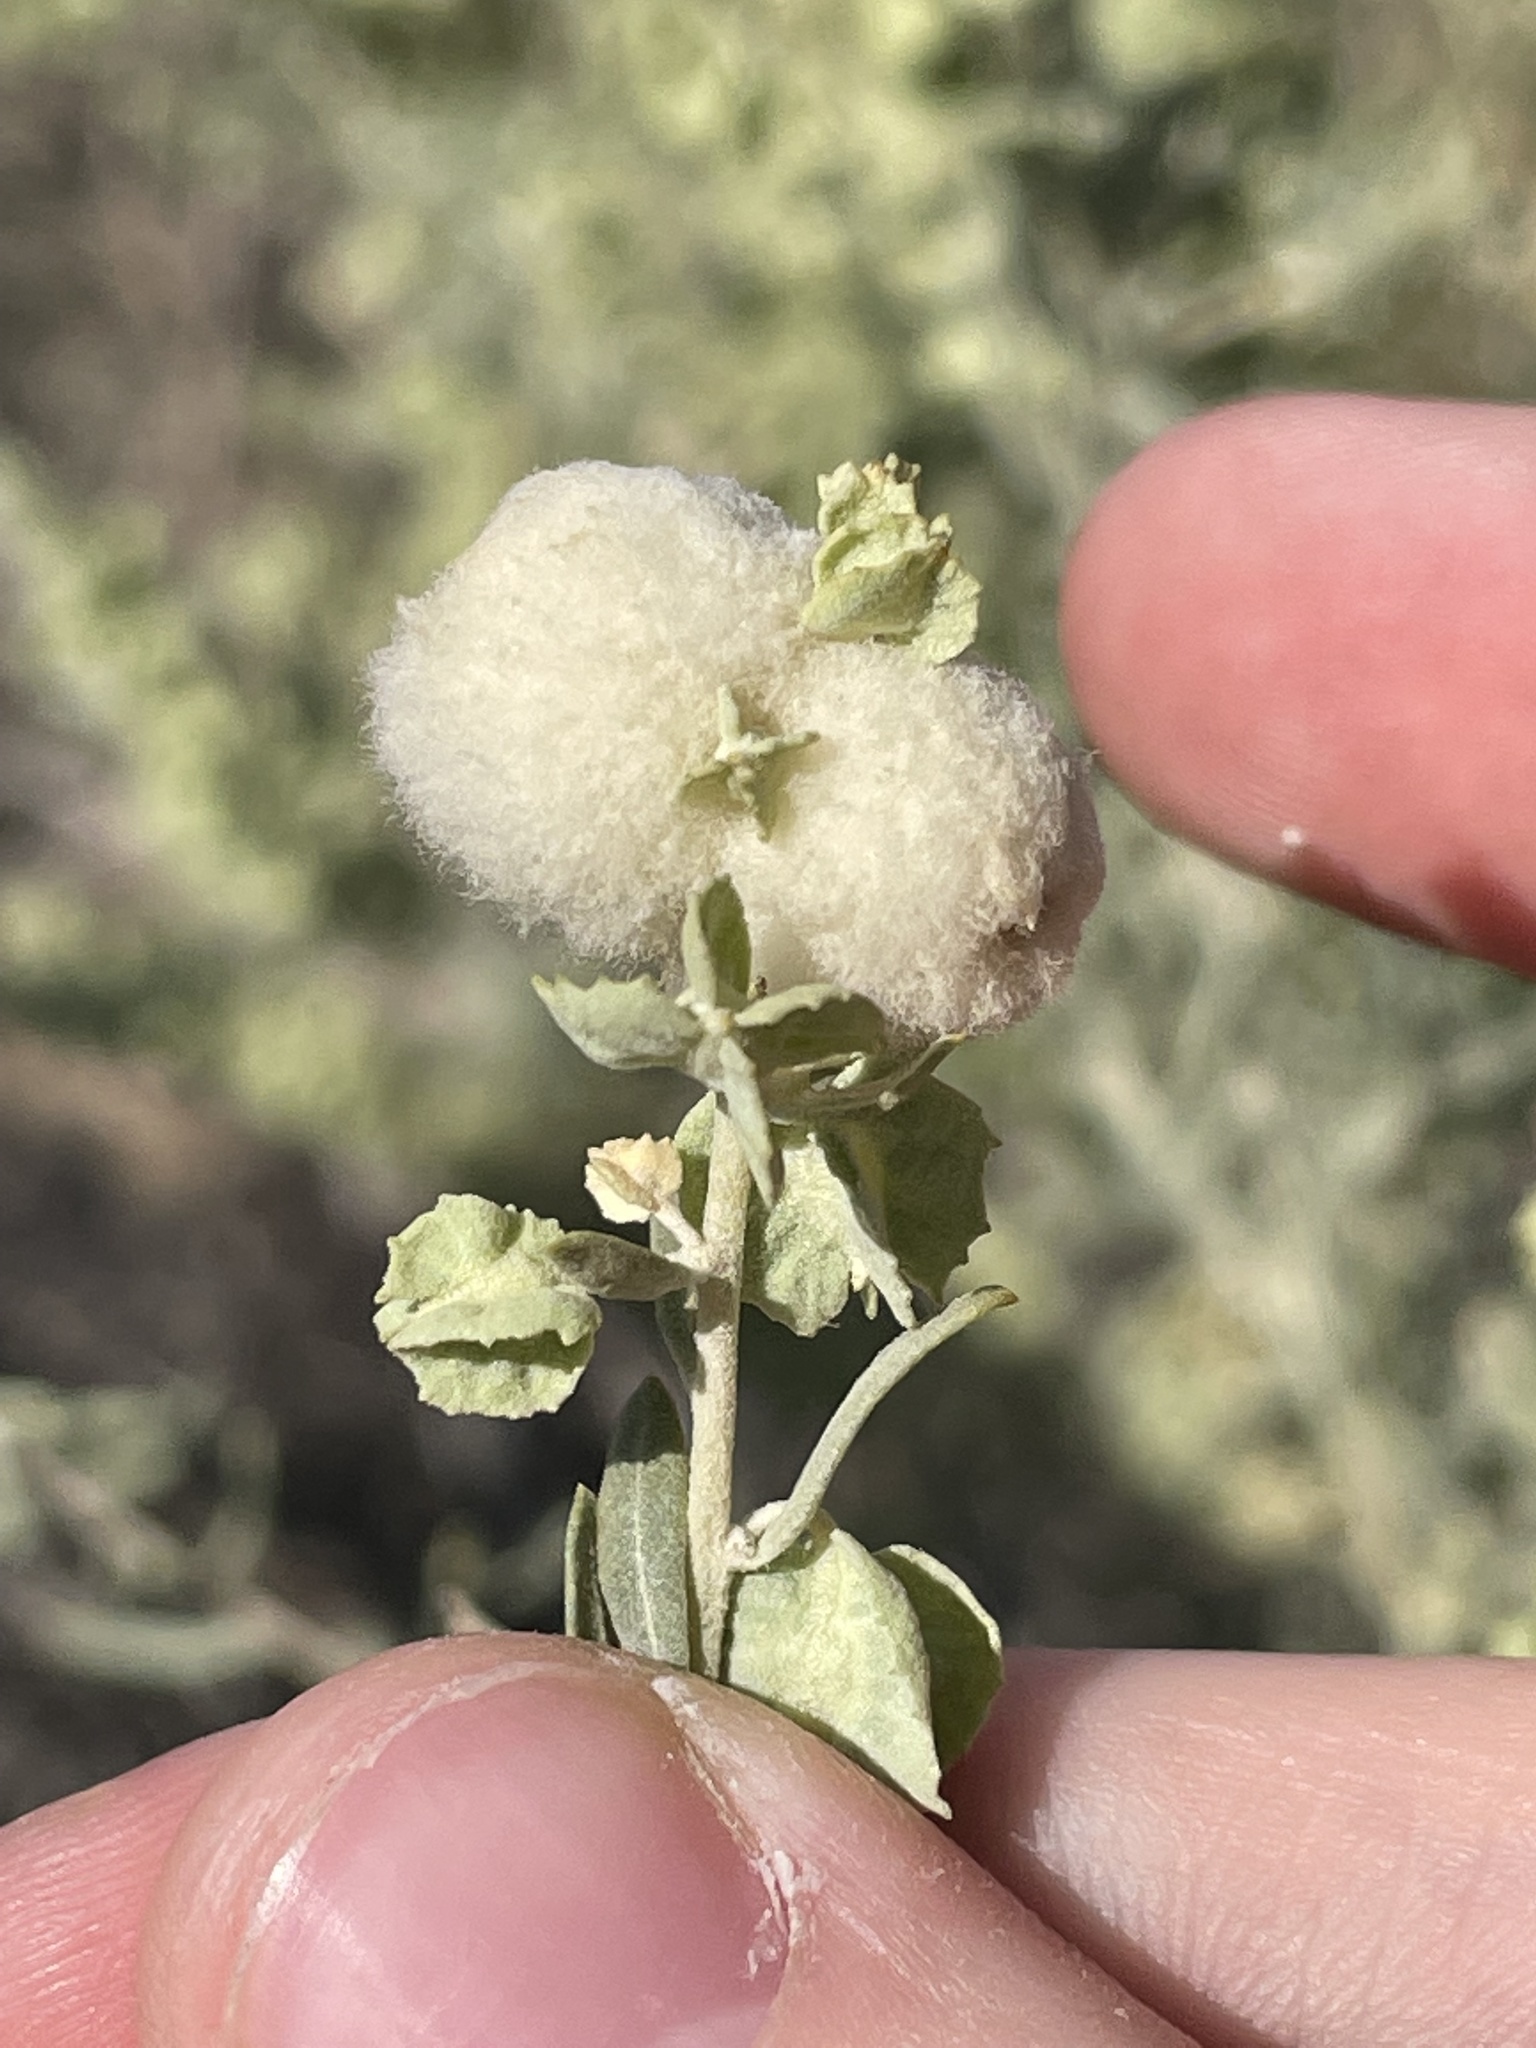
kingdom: Animalia
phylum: Arthropoda
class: Insecta
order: Diptera
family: Cecidomyiidae
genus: Asphondylia
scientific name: Asphondylia neomexicana
